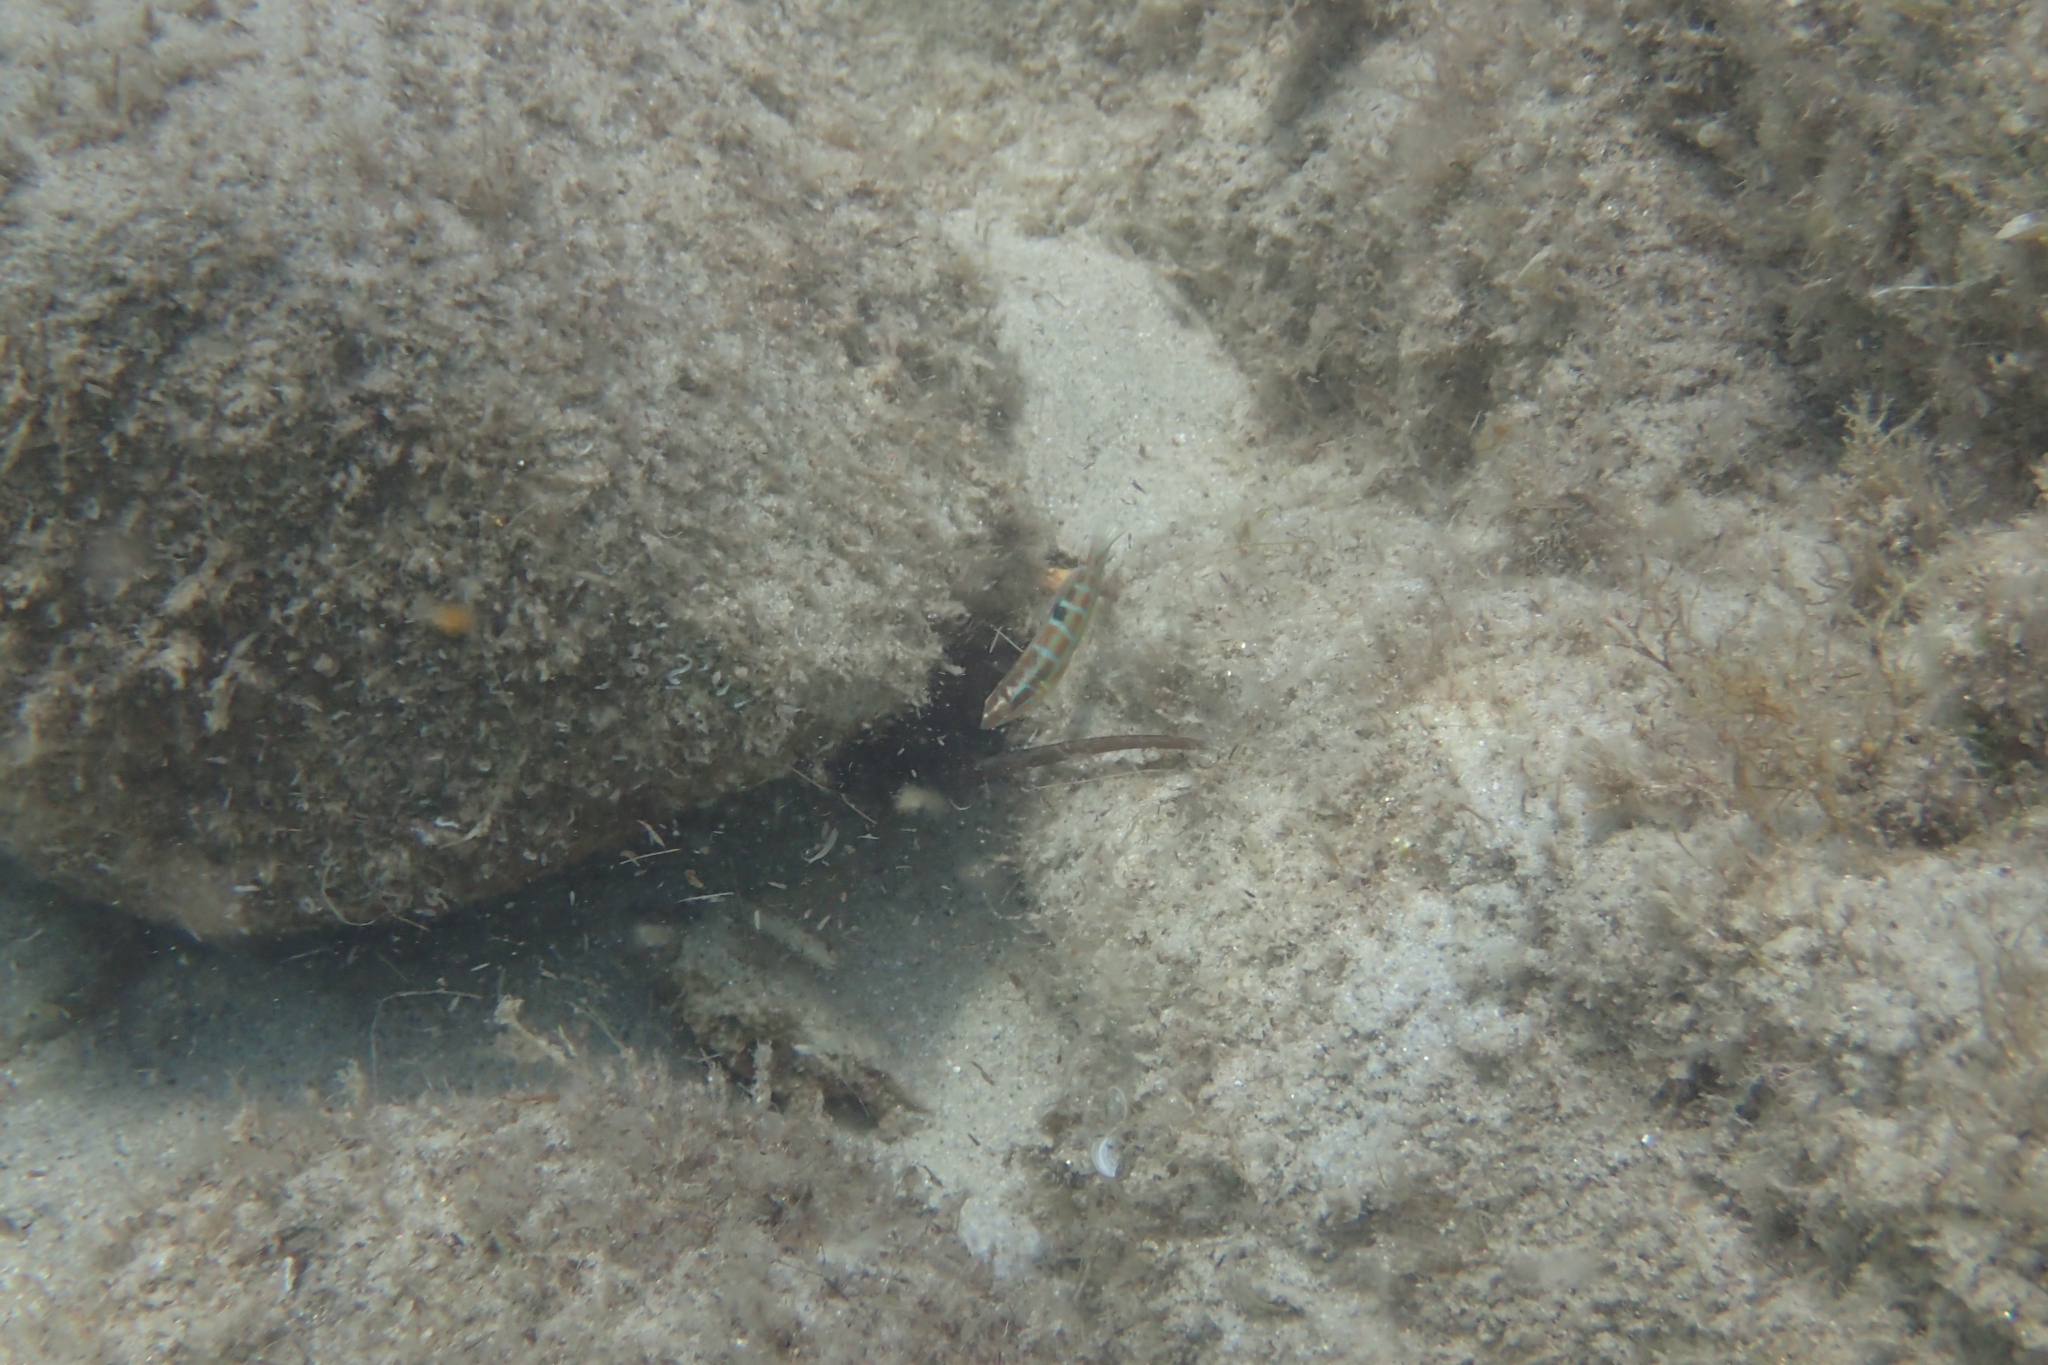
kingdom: Animalia
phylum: Chordata
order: Perciformes
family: Labridae
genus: Thalassoma
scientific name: Thalassoma pavo
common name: Ornate wrasse
